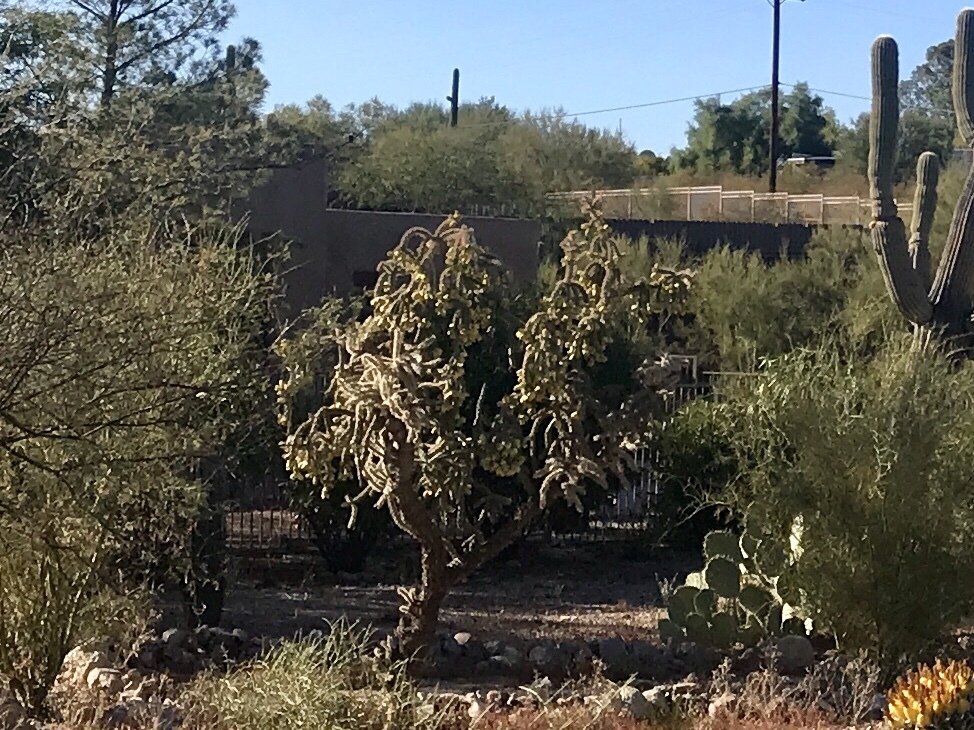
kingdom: Plantae
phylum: Tracheophyta
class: Magnoliopsida
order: Caryophyllales
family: Cactaceae
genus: Cylindropuntia
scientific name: Cylindropuntia imbricata
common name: Candelabrum cactus
